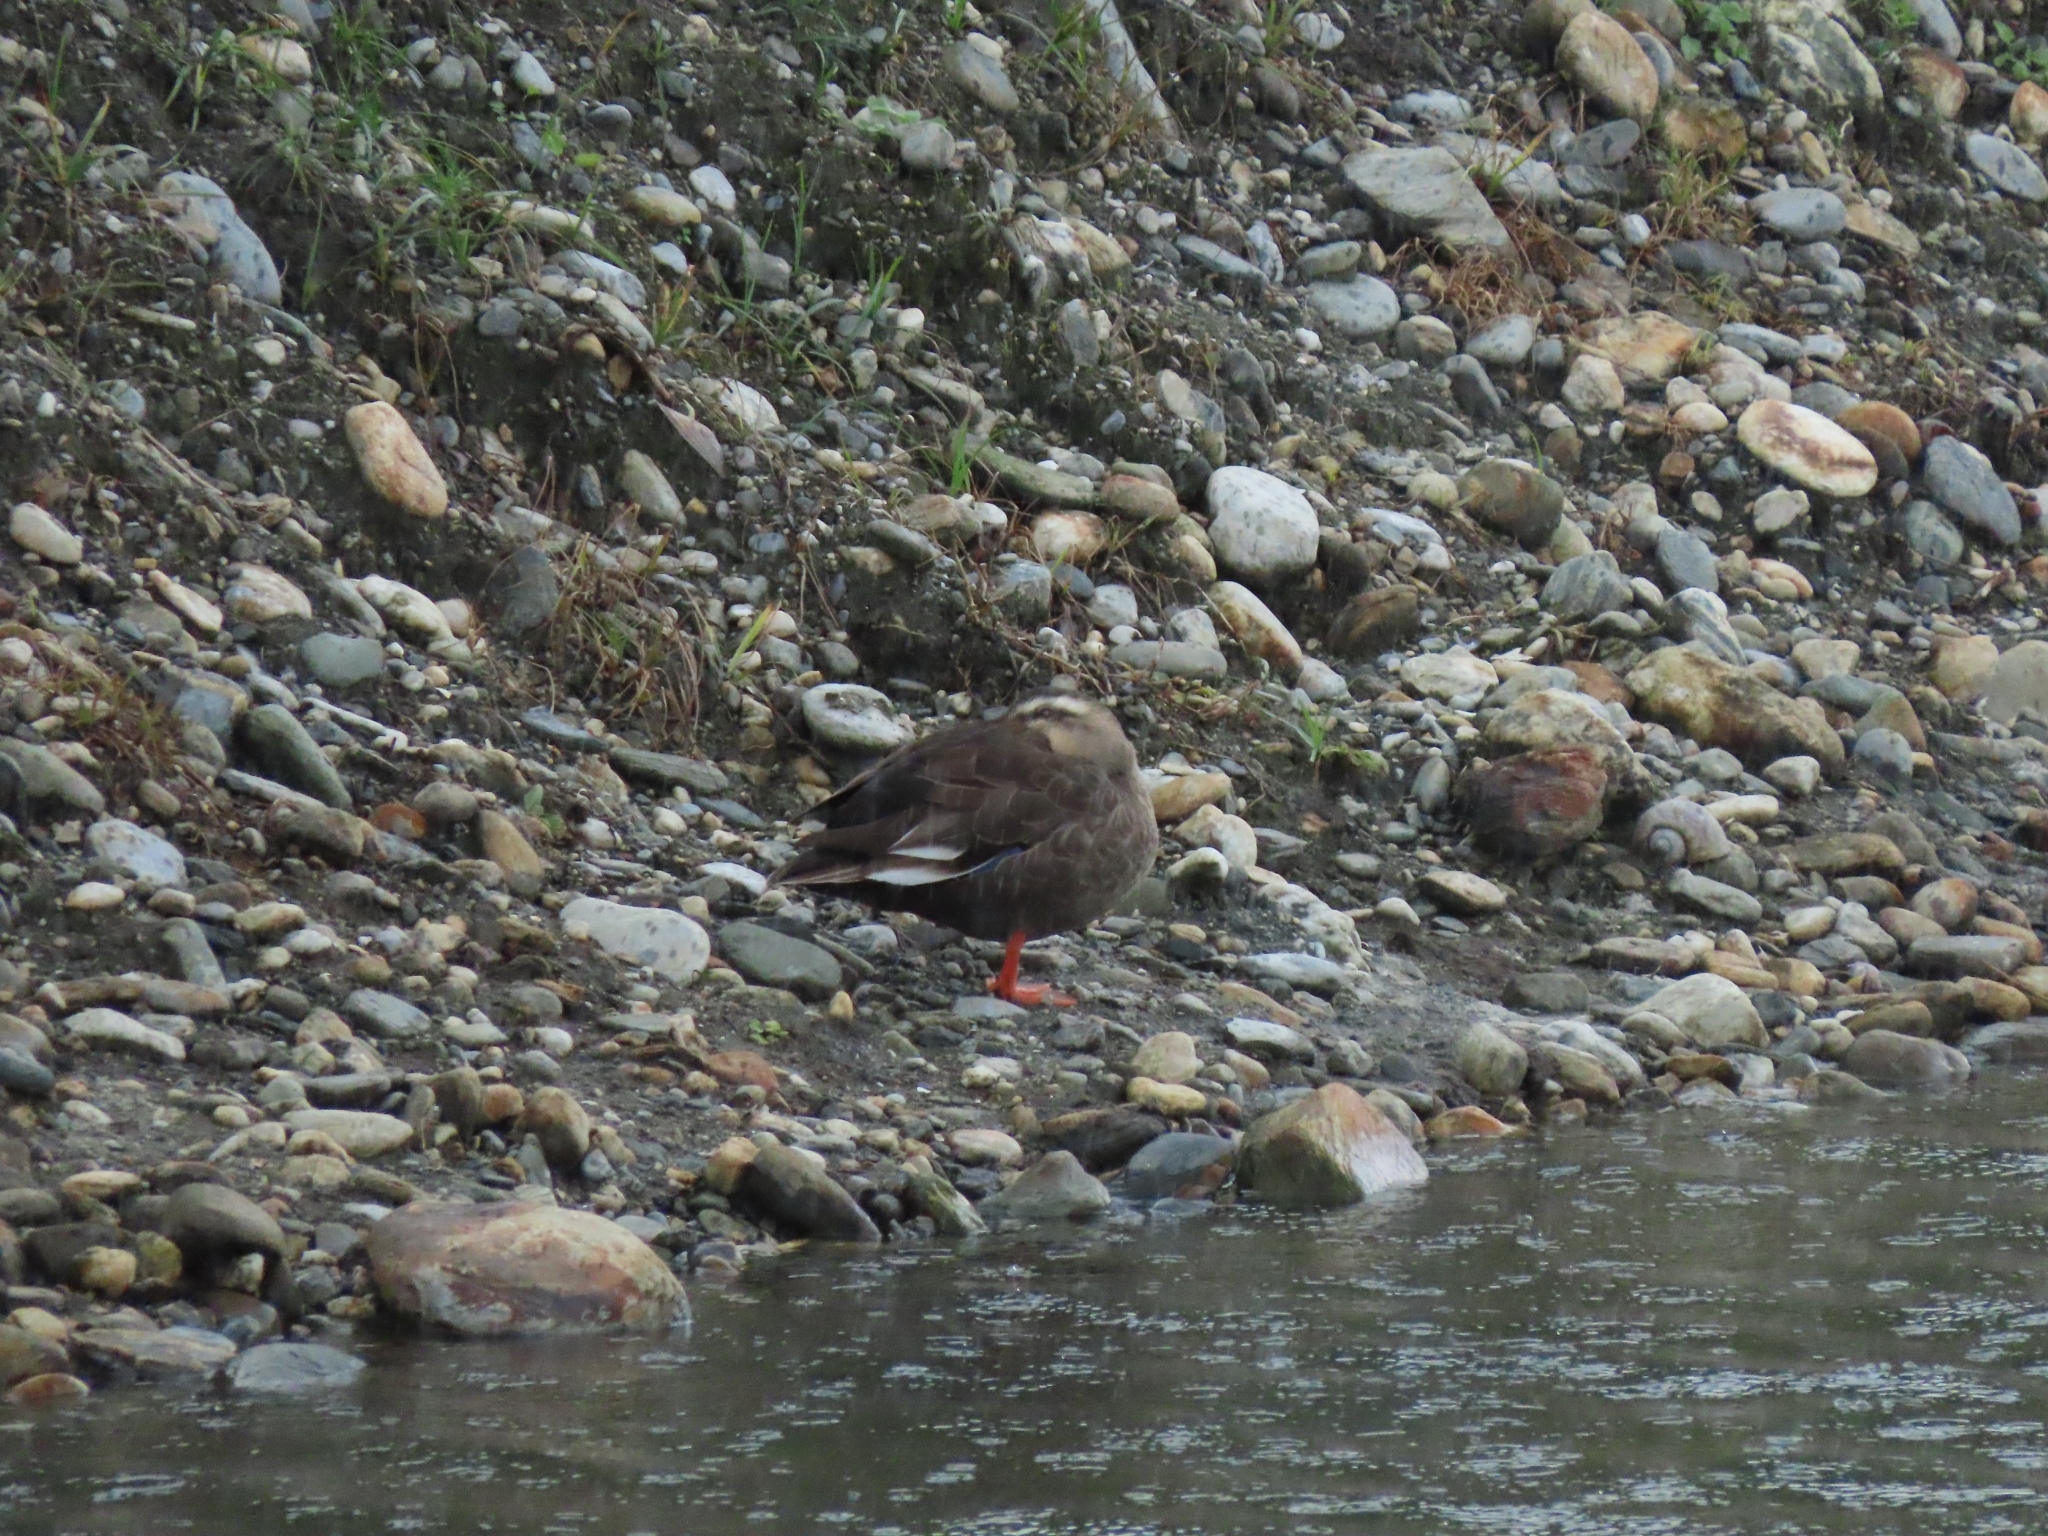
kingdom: Animalia
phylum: Chordata
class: Aves
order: Anseriformes
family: Anatidae
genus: Anas
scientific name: Anas zonorhyncha
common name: Eastern spot-billed duck
